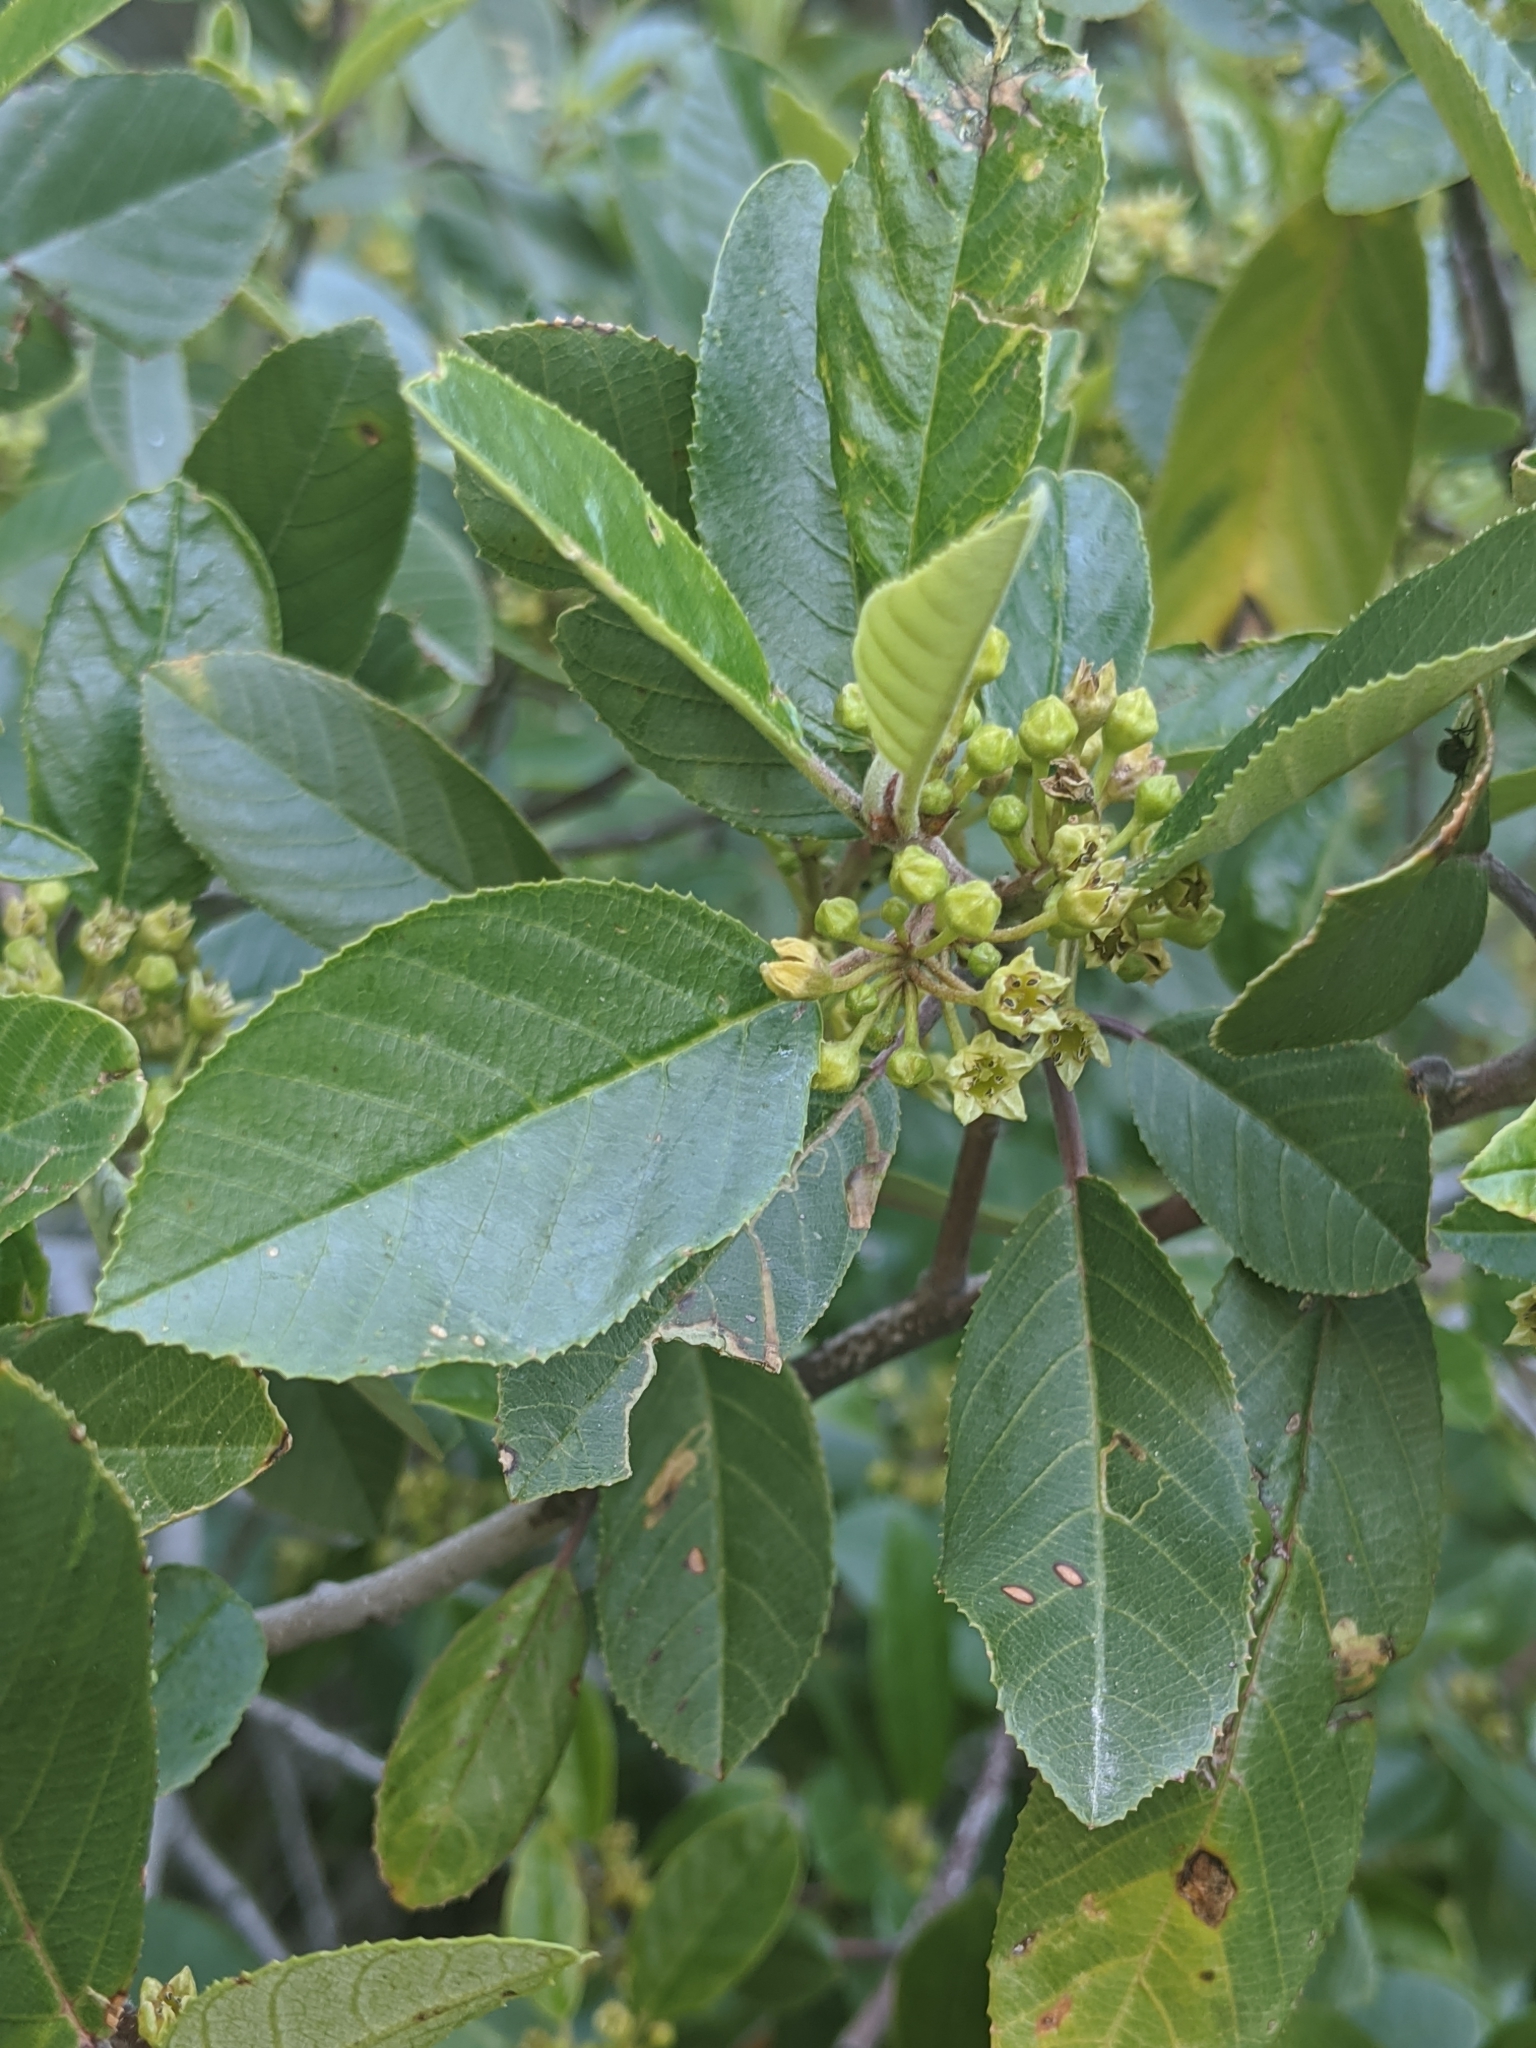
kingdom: Plantae
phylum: Tracheophyta
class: Magnoliopsida
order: Rosales
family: Rhamnaceae
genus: Frangula
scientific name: Frangula californica
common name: California buckthorn
